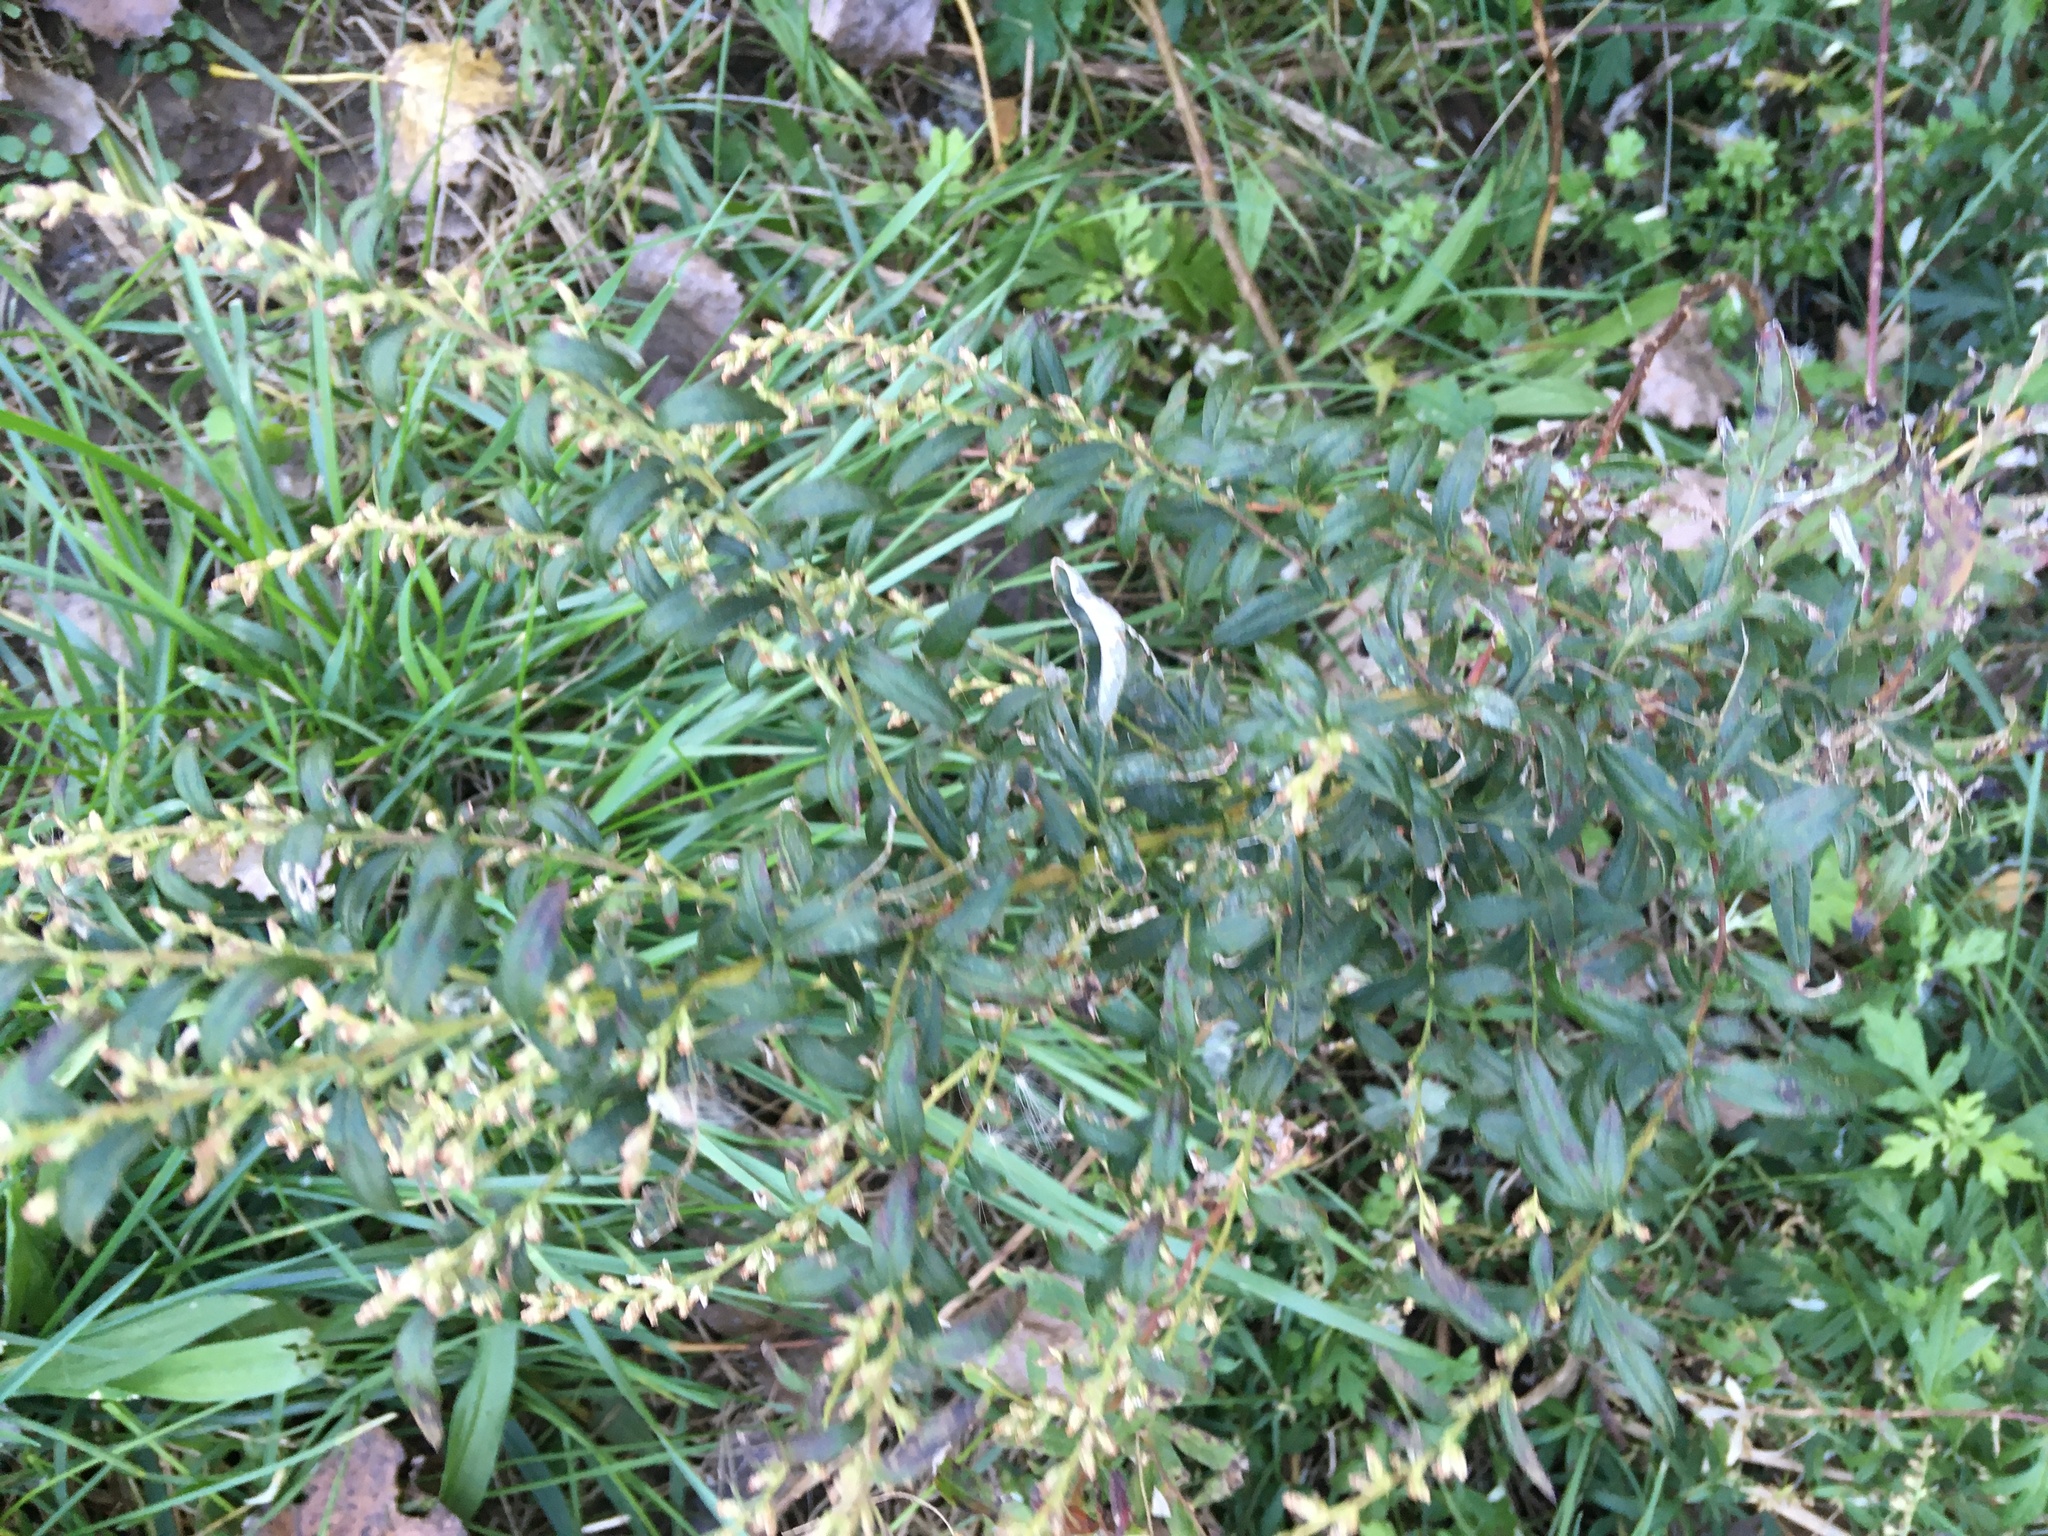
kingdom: Plantae
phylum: Tracheophyta
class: Magnoliopsida
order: Asterales
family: Asteraceae
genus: Artemisia
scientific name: Artemisia vulgaris
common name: Mugwort
